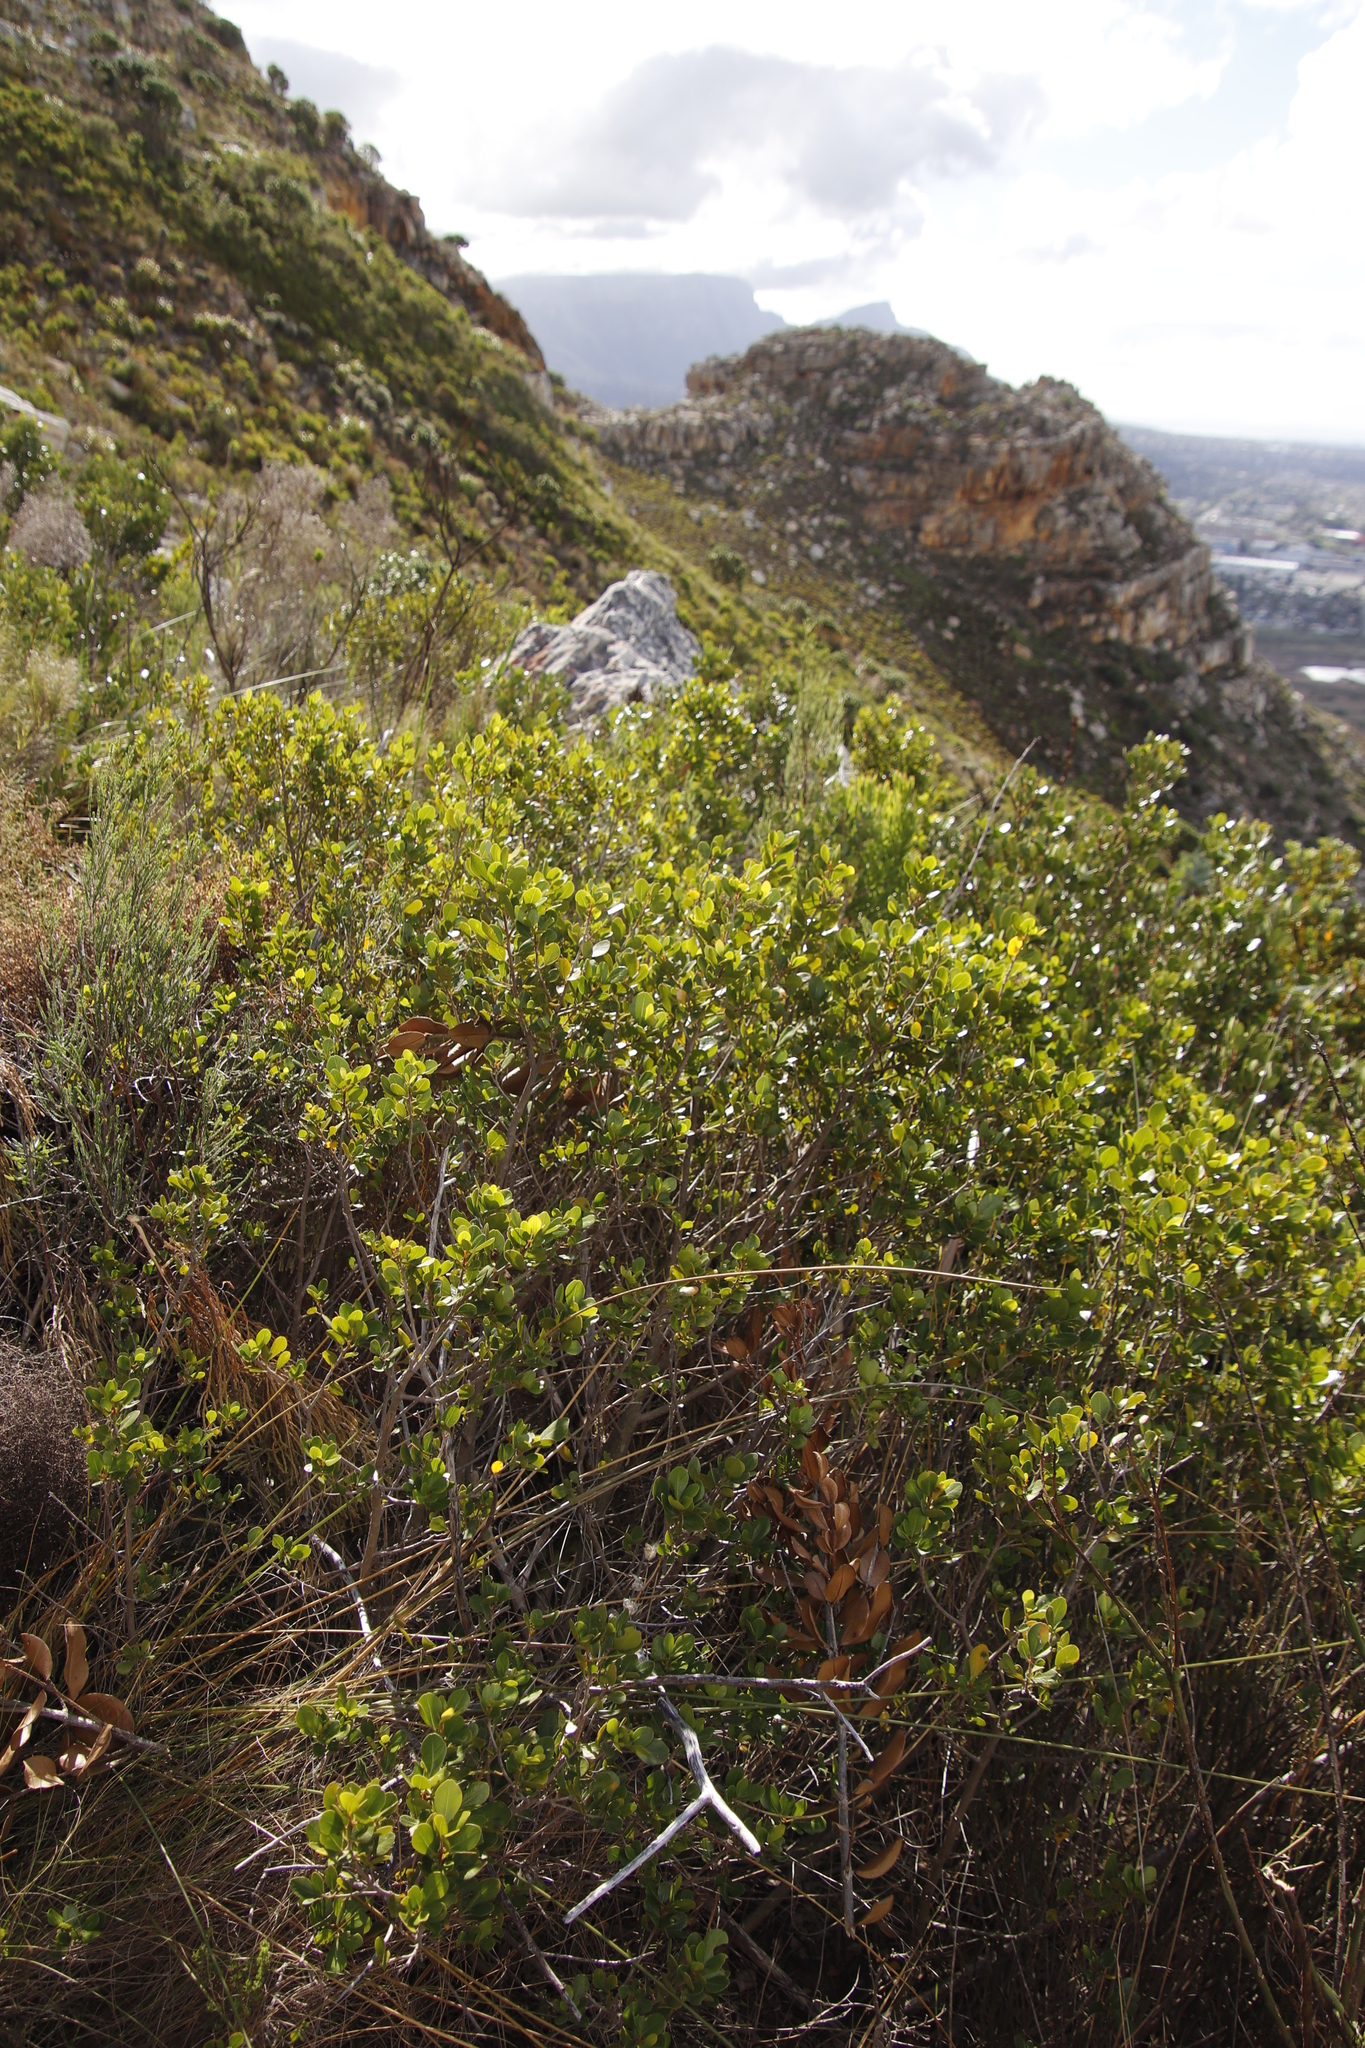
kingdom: Plantae
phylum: Tracheophyta
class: Magnoliopsida
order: Sapindales
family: Anacardiaceae
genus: Searsia
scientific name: Searsia lucida
